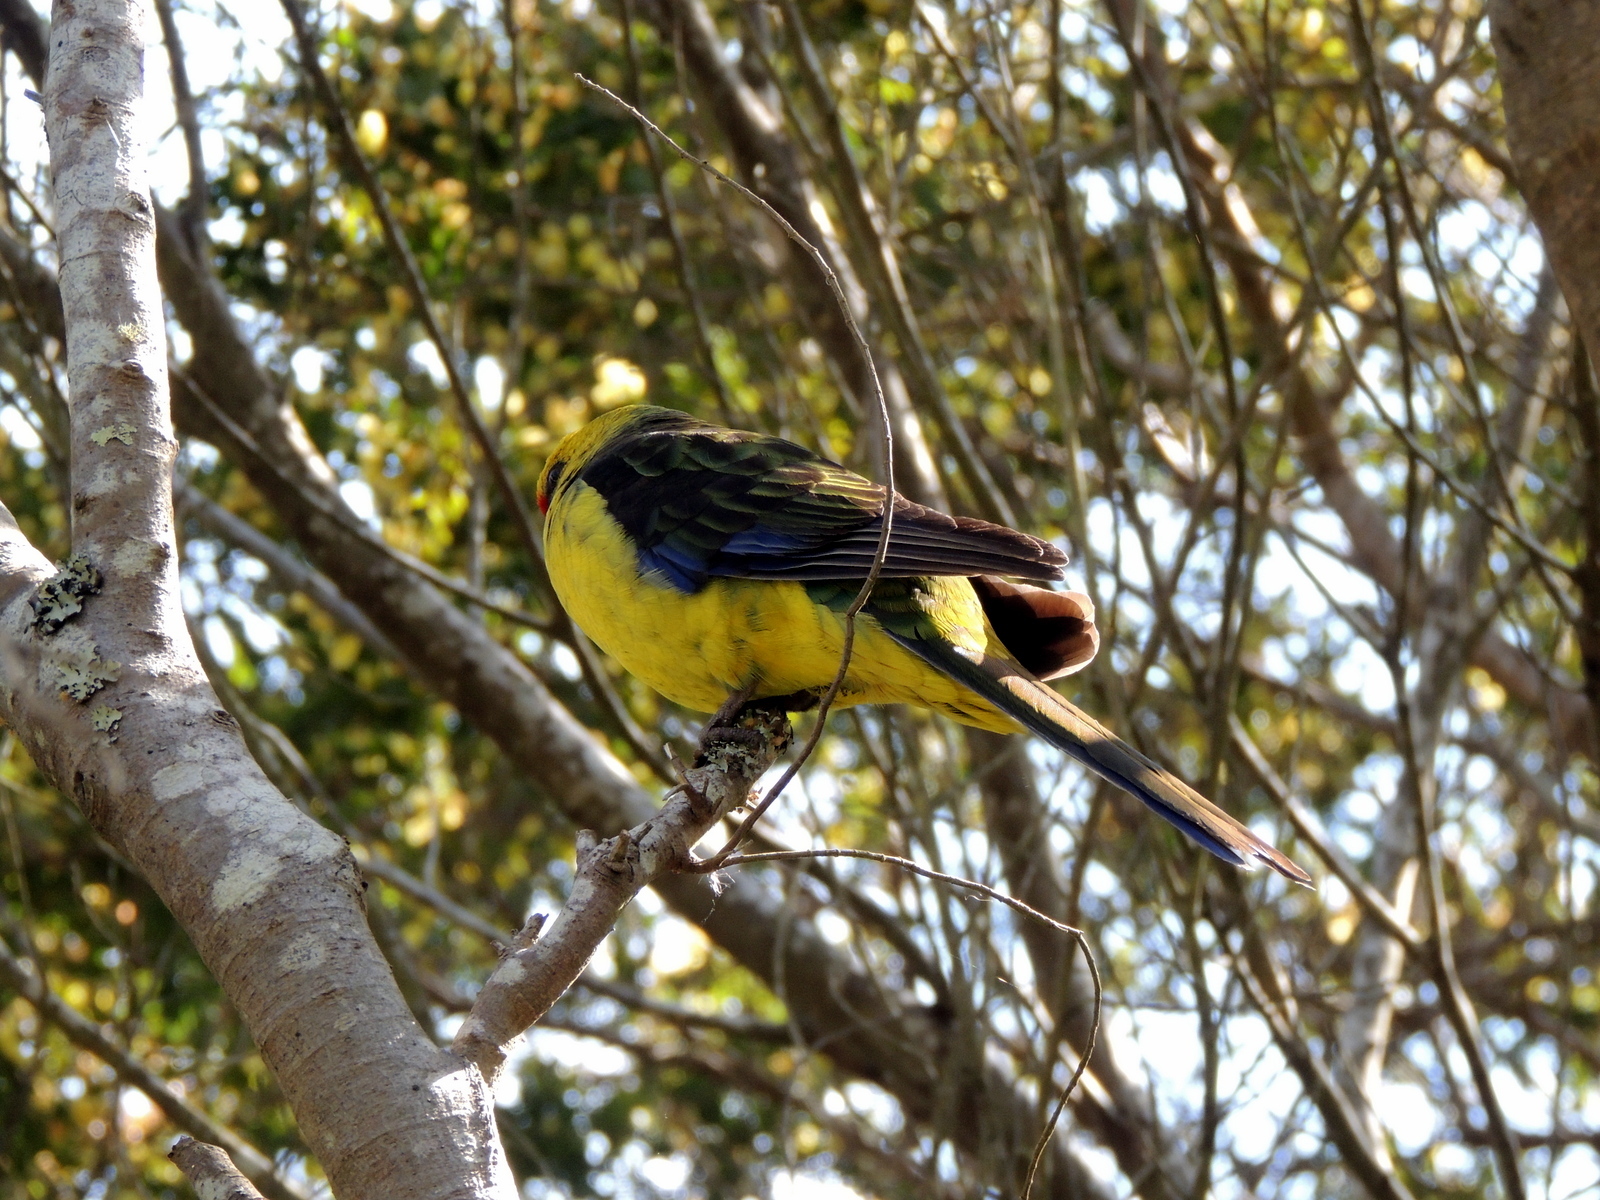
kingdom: Animalia
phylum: Chordata
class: Aves
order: Psittaciformes
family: Psittacidae
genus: Platycercus
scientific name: Platycercus caledonicus
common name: Green rosella
